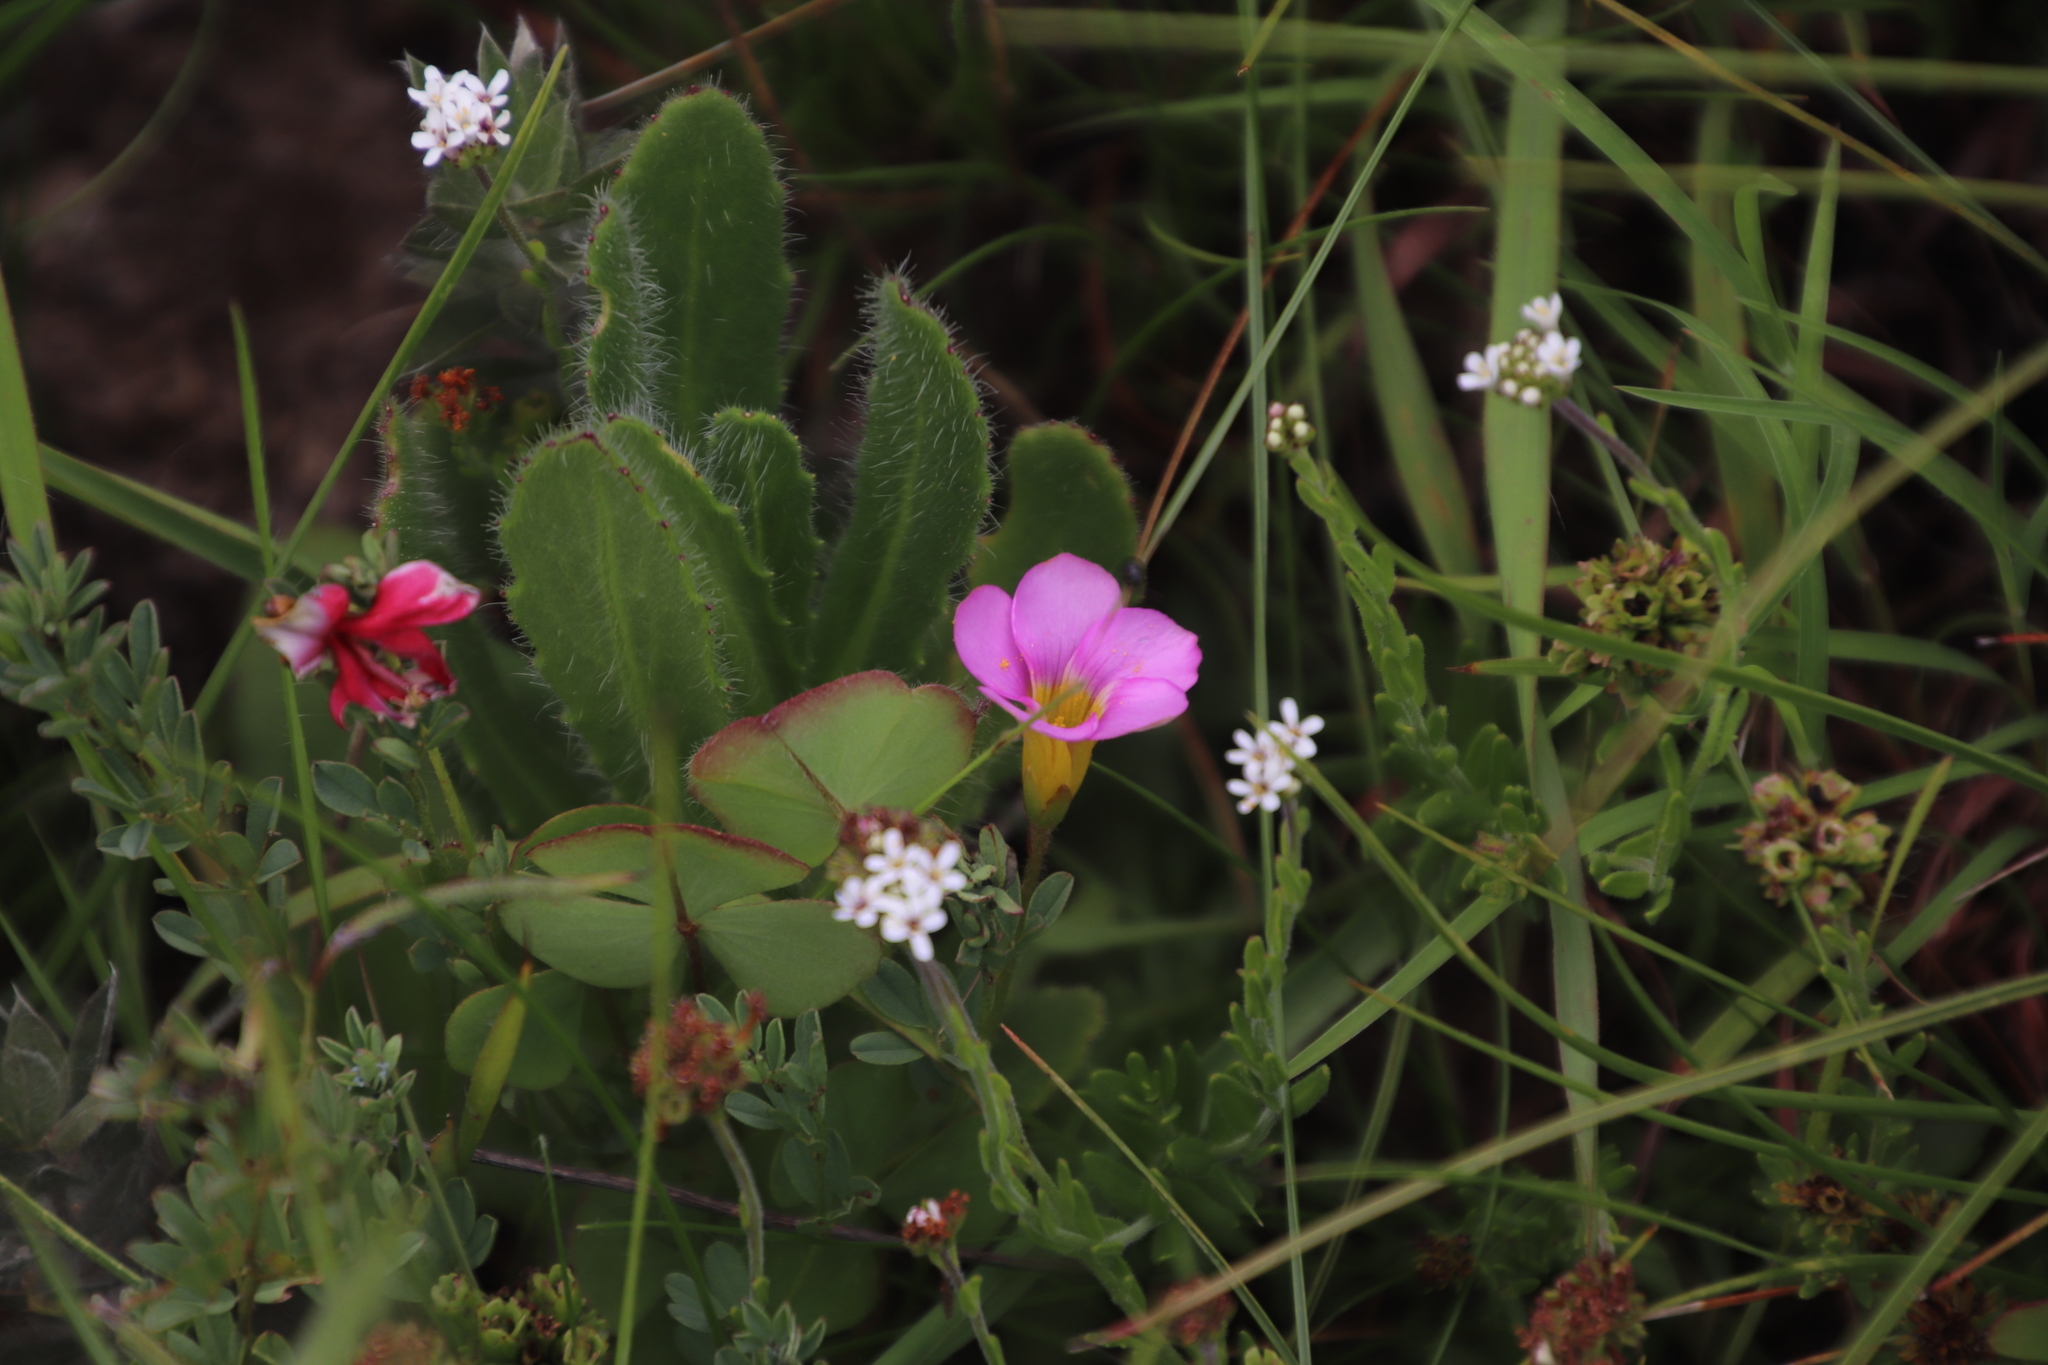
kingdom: Plantae
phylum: Tracheophyta
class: Magnoliopsida
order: Oxalidales
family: Oxalidaceae
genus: Oxalis
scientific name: Oxalis obliquifolia
